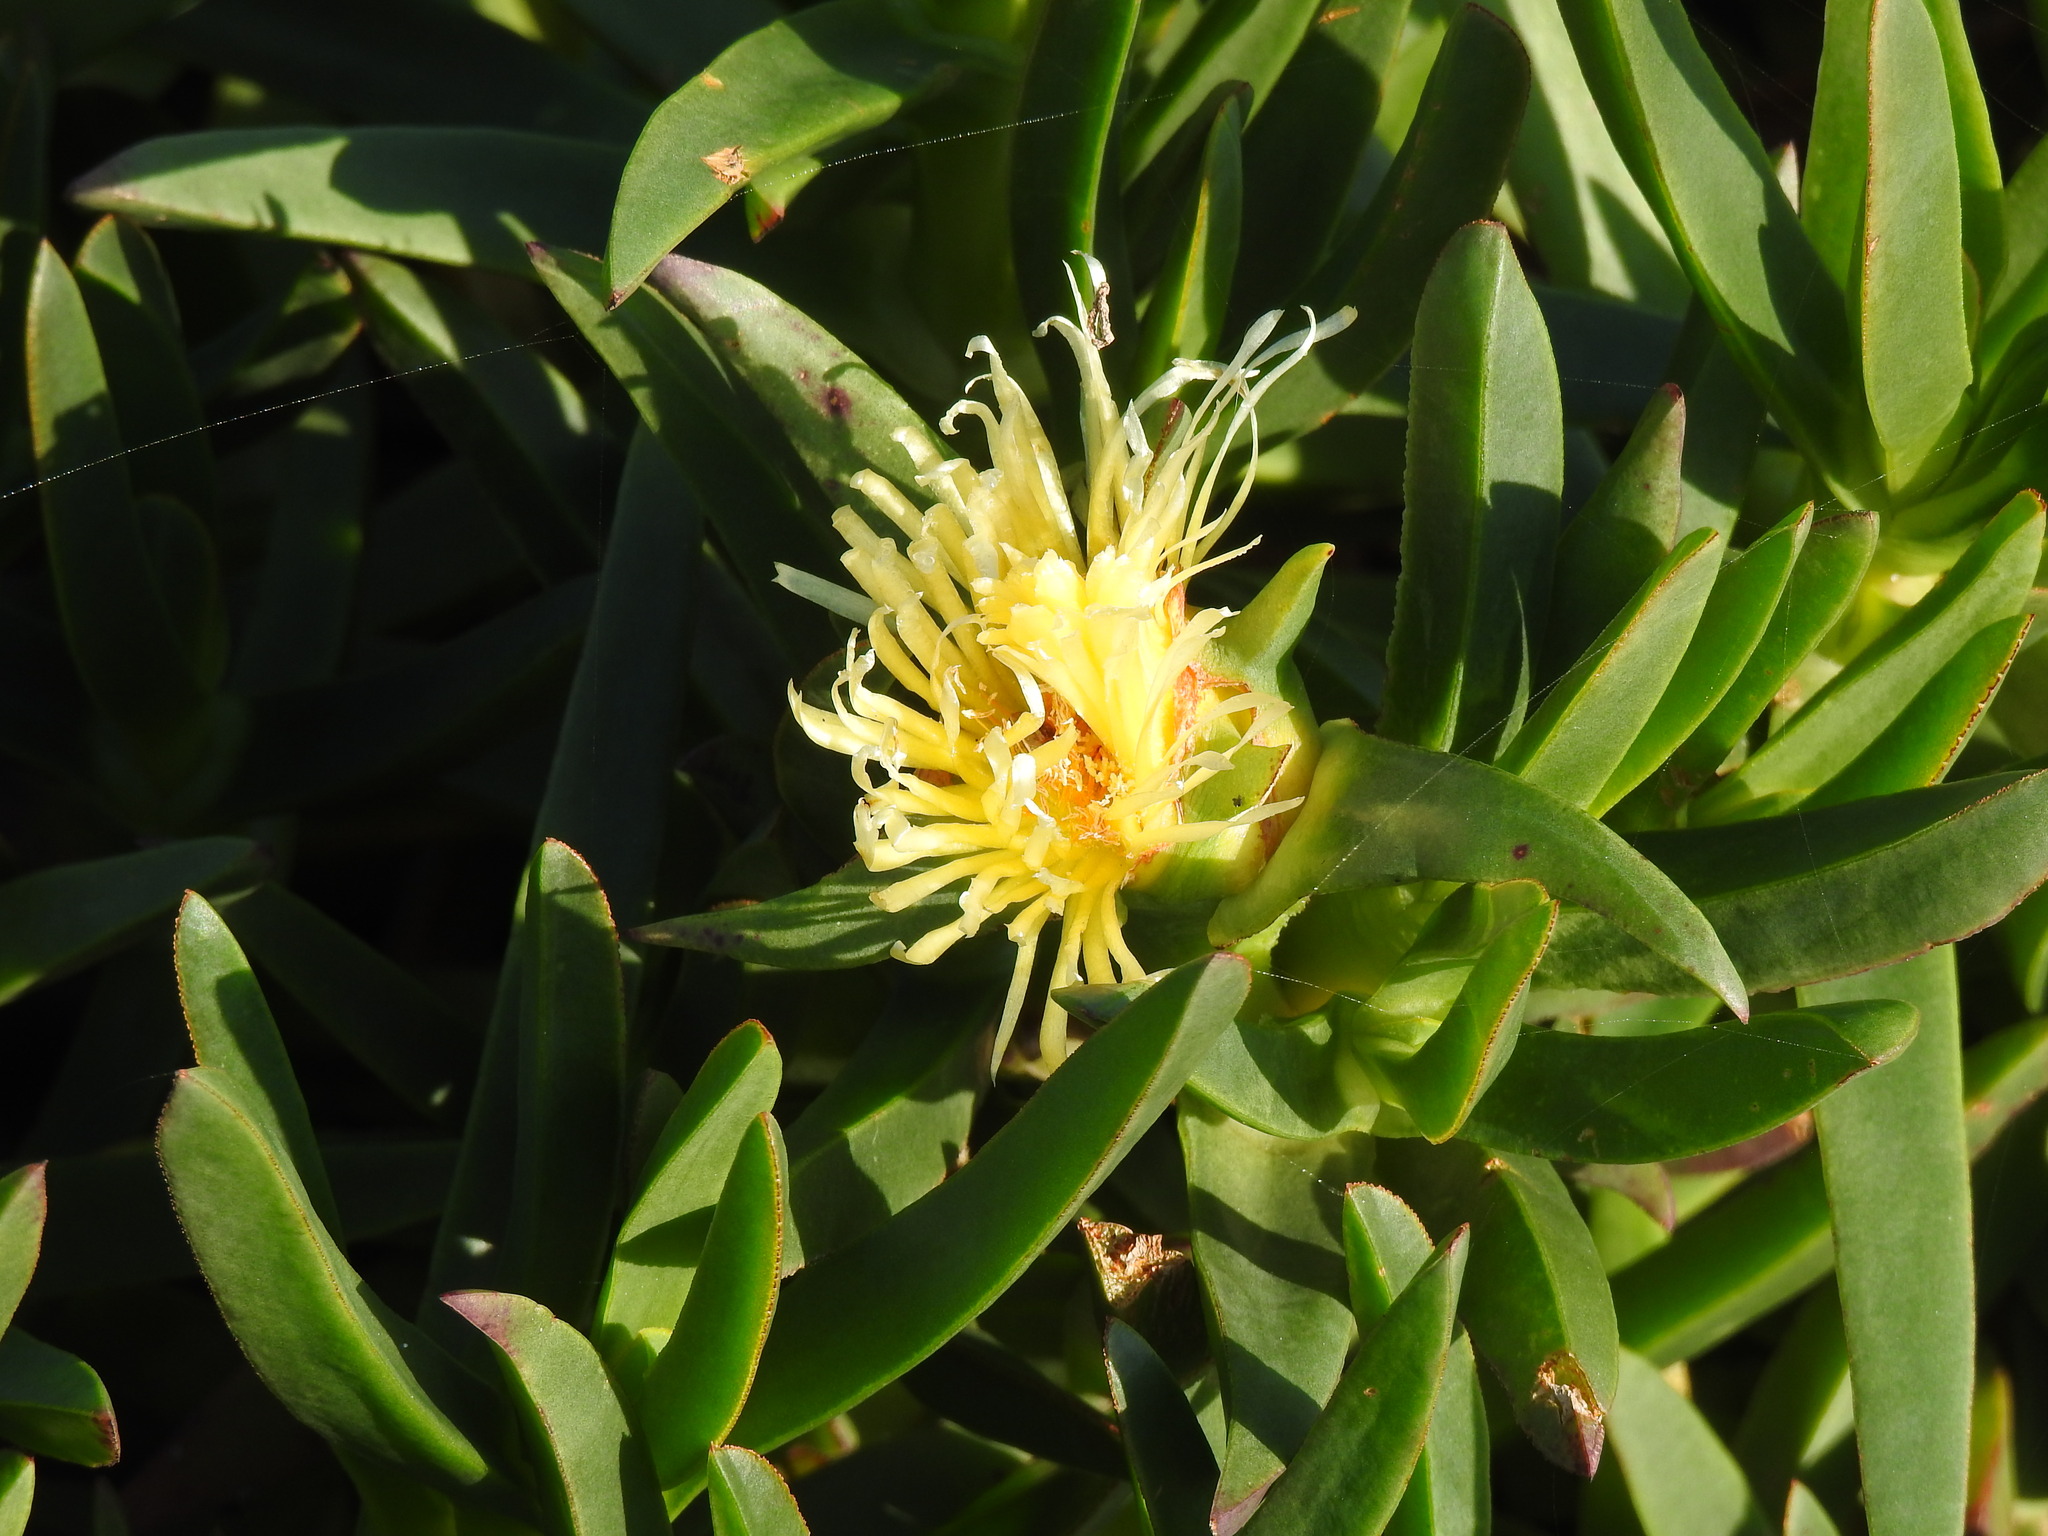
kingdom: Plantae
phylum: Tracheophyta
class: Magnoliopsida
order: Caryophyllales
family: Aizoaceae
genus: Carpobrotus
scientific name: Carpobrotus edulis
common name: Hottentot-fig
